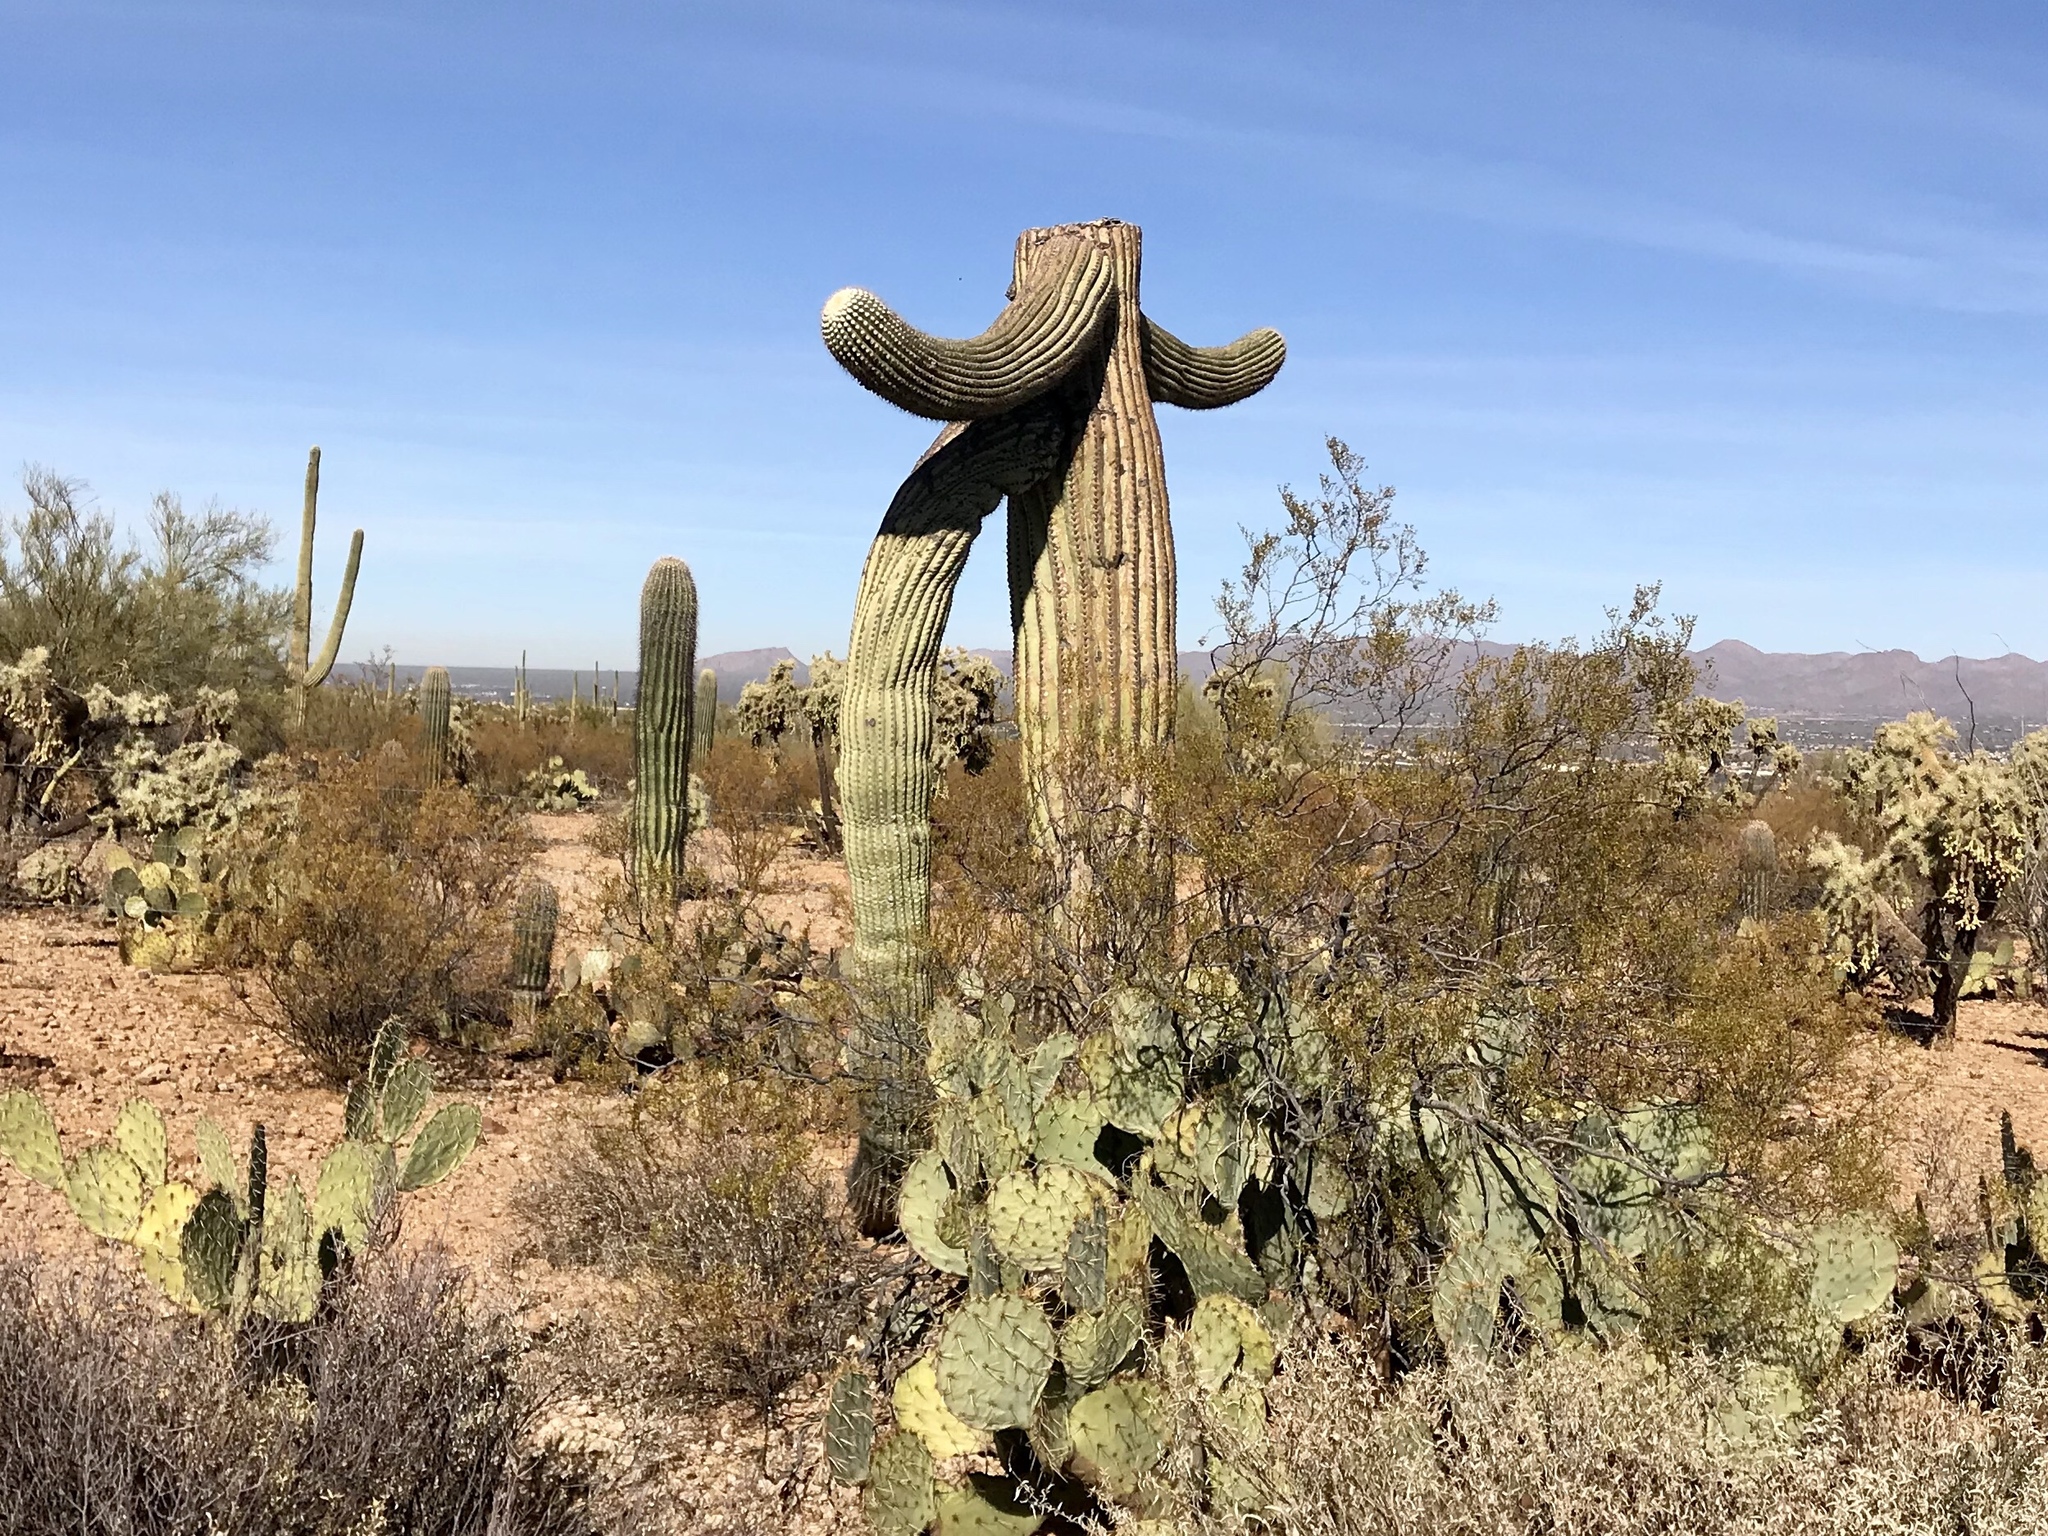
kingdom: Plantae
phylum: Tracheophyta
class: Magnoliopsida
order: Caryophyllales
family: Cactaceae
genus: Carnegiea
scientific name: Carnegiea gigantea
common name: Saguaro
